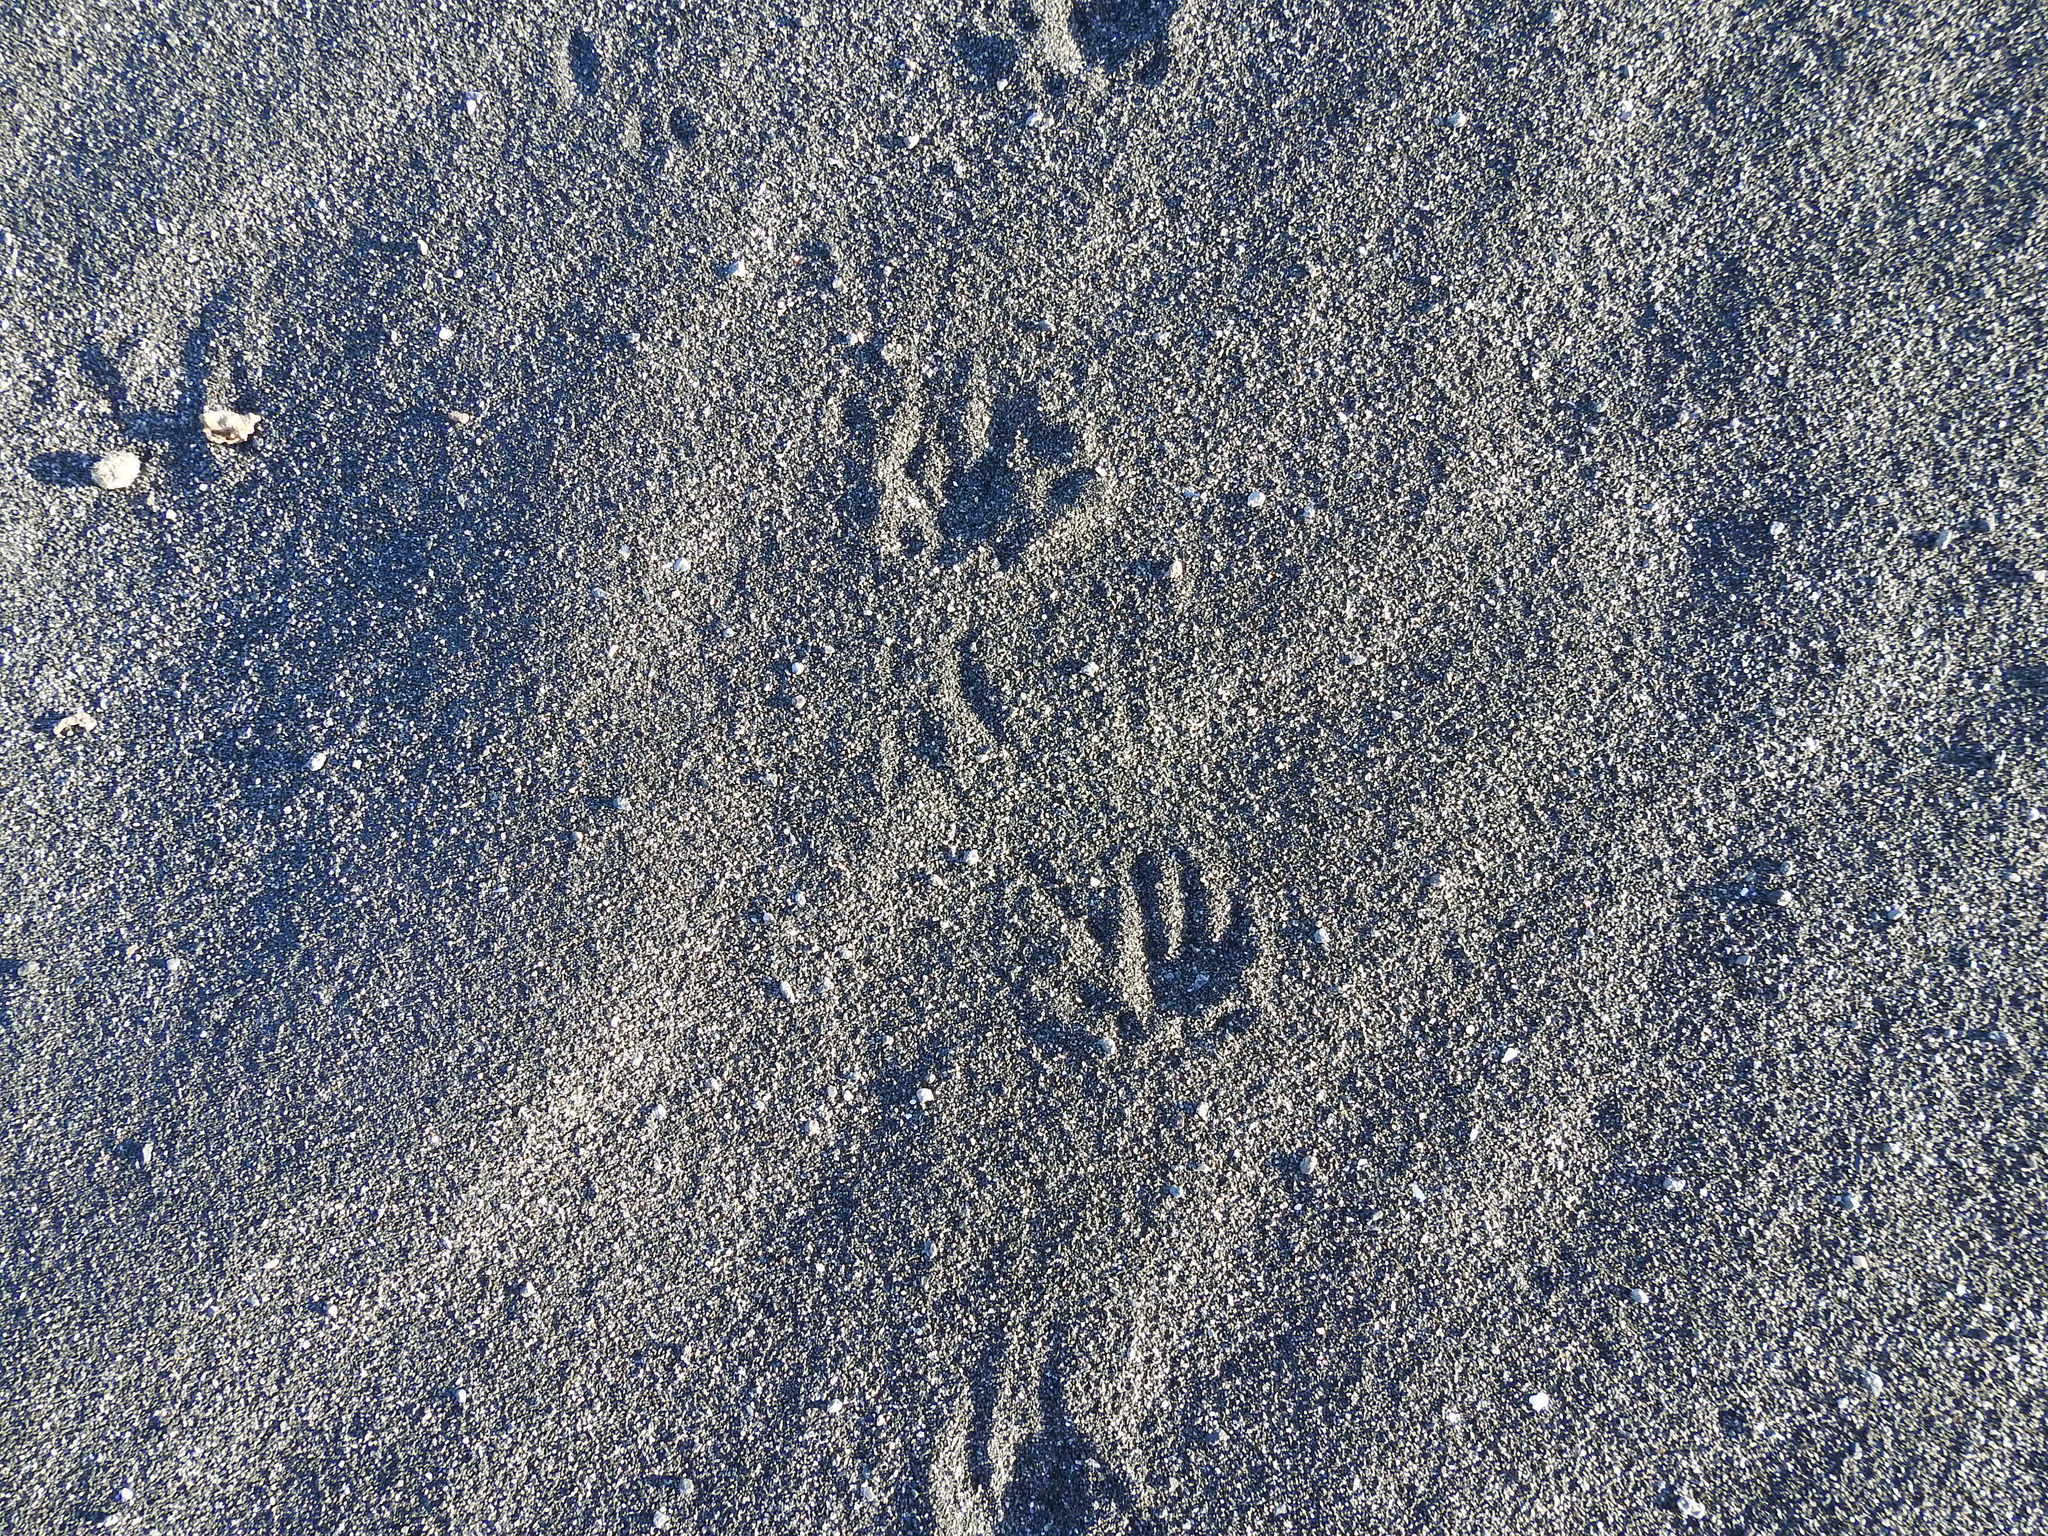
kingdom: Animalia
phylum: Chordata
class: Mammalia
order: Erinaceomorpha
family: Erinaceidae
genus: Erinaceus
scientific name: Erinaceus europaeus
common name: West european hedgehog
